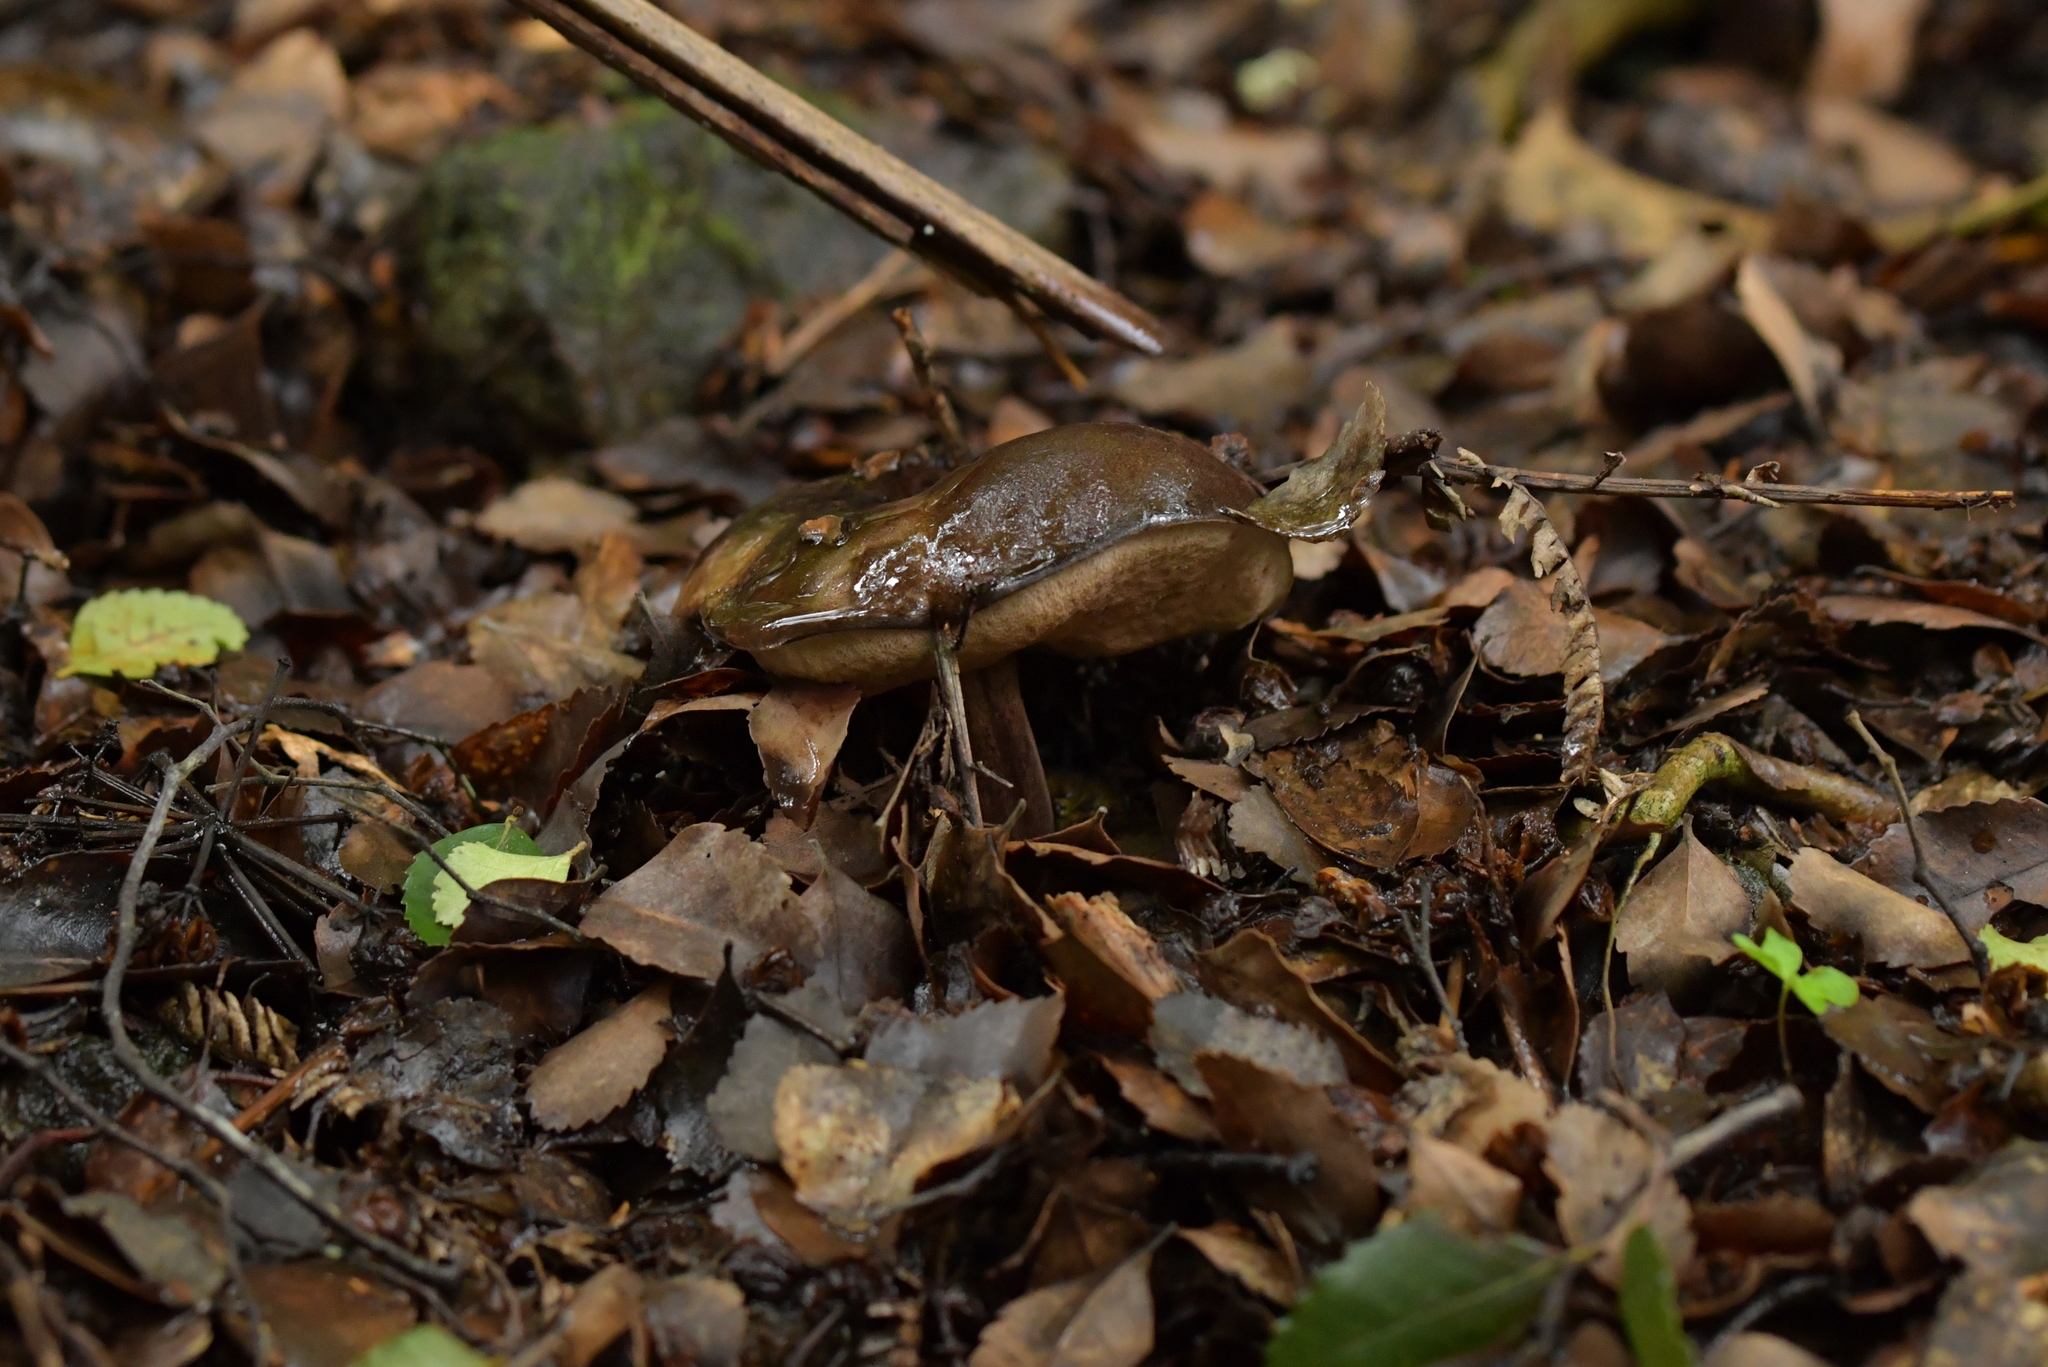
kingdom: Fungi
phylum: Basidiomycota
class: Agaricomycetes
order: Boletales
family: Boletaceae
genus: Porphyrellus
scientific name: Porphyrellus formosus
